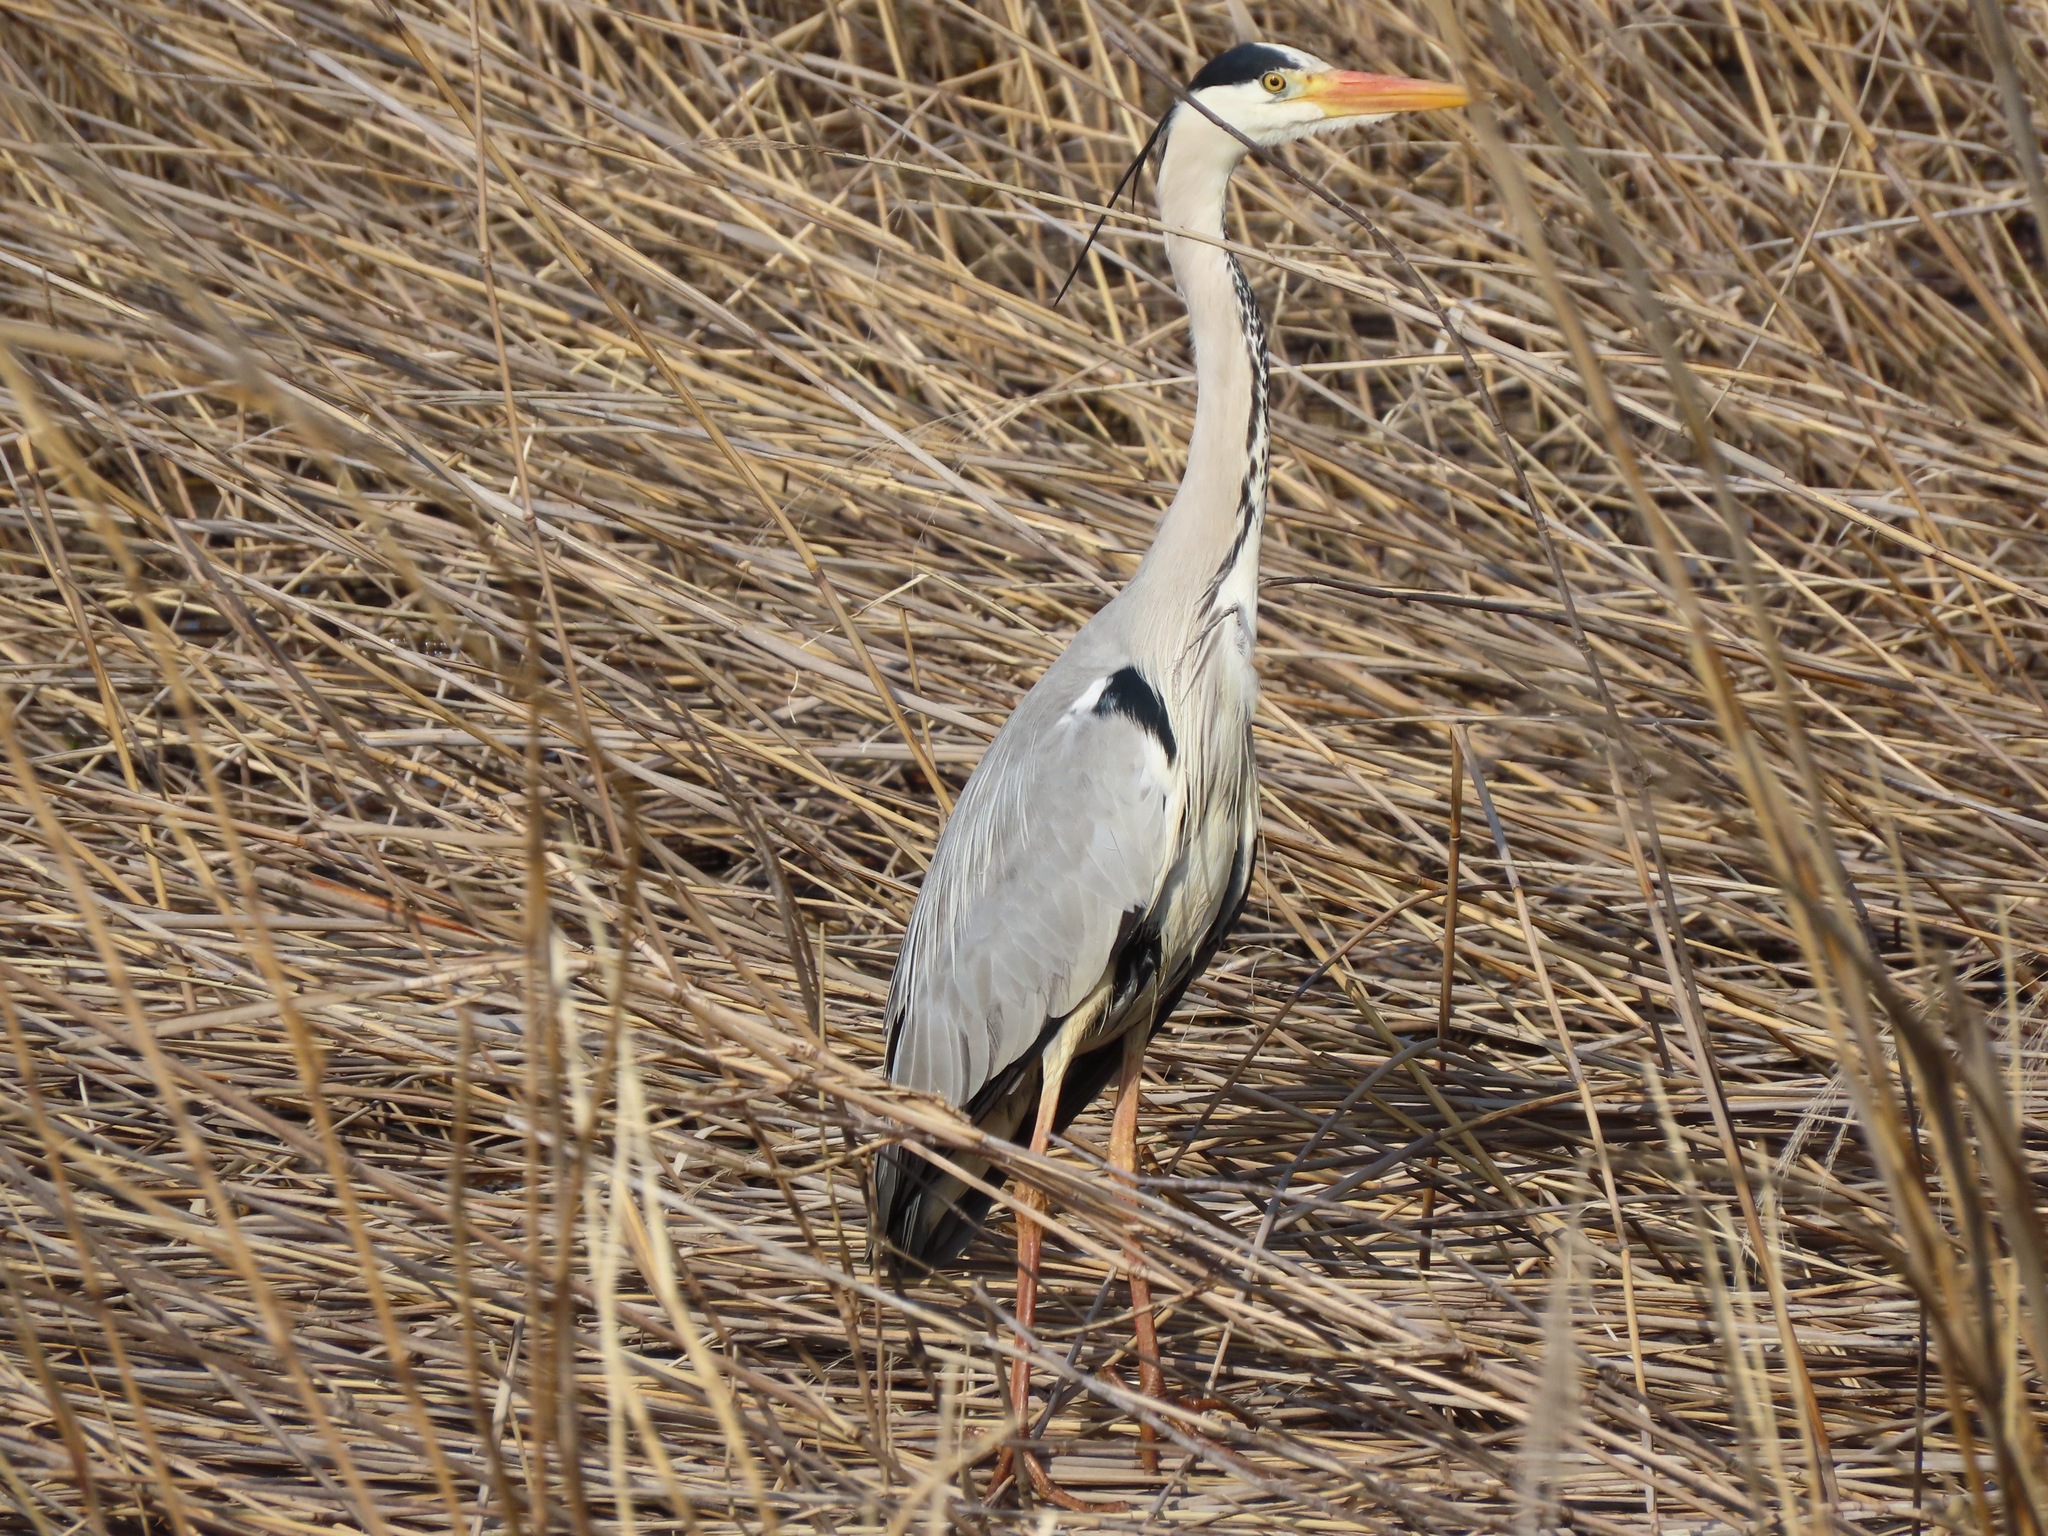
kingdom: Animalia
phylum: Chordata
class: Aves
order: Pelecaniformes
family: Ardeidae
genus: Ardea
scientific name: Ardea cinerea
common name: Grey heron
